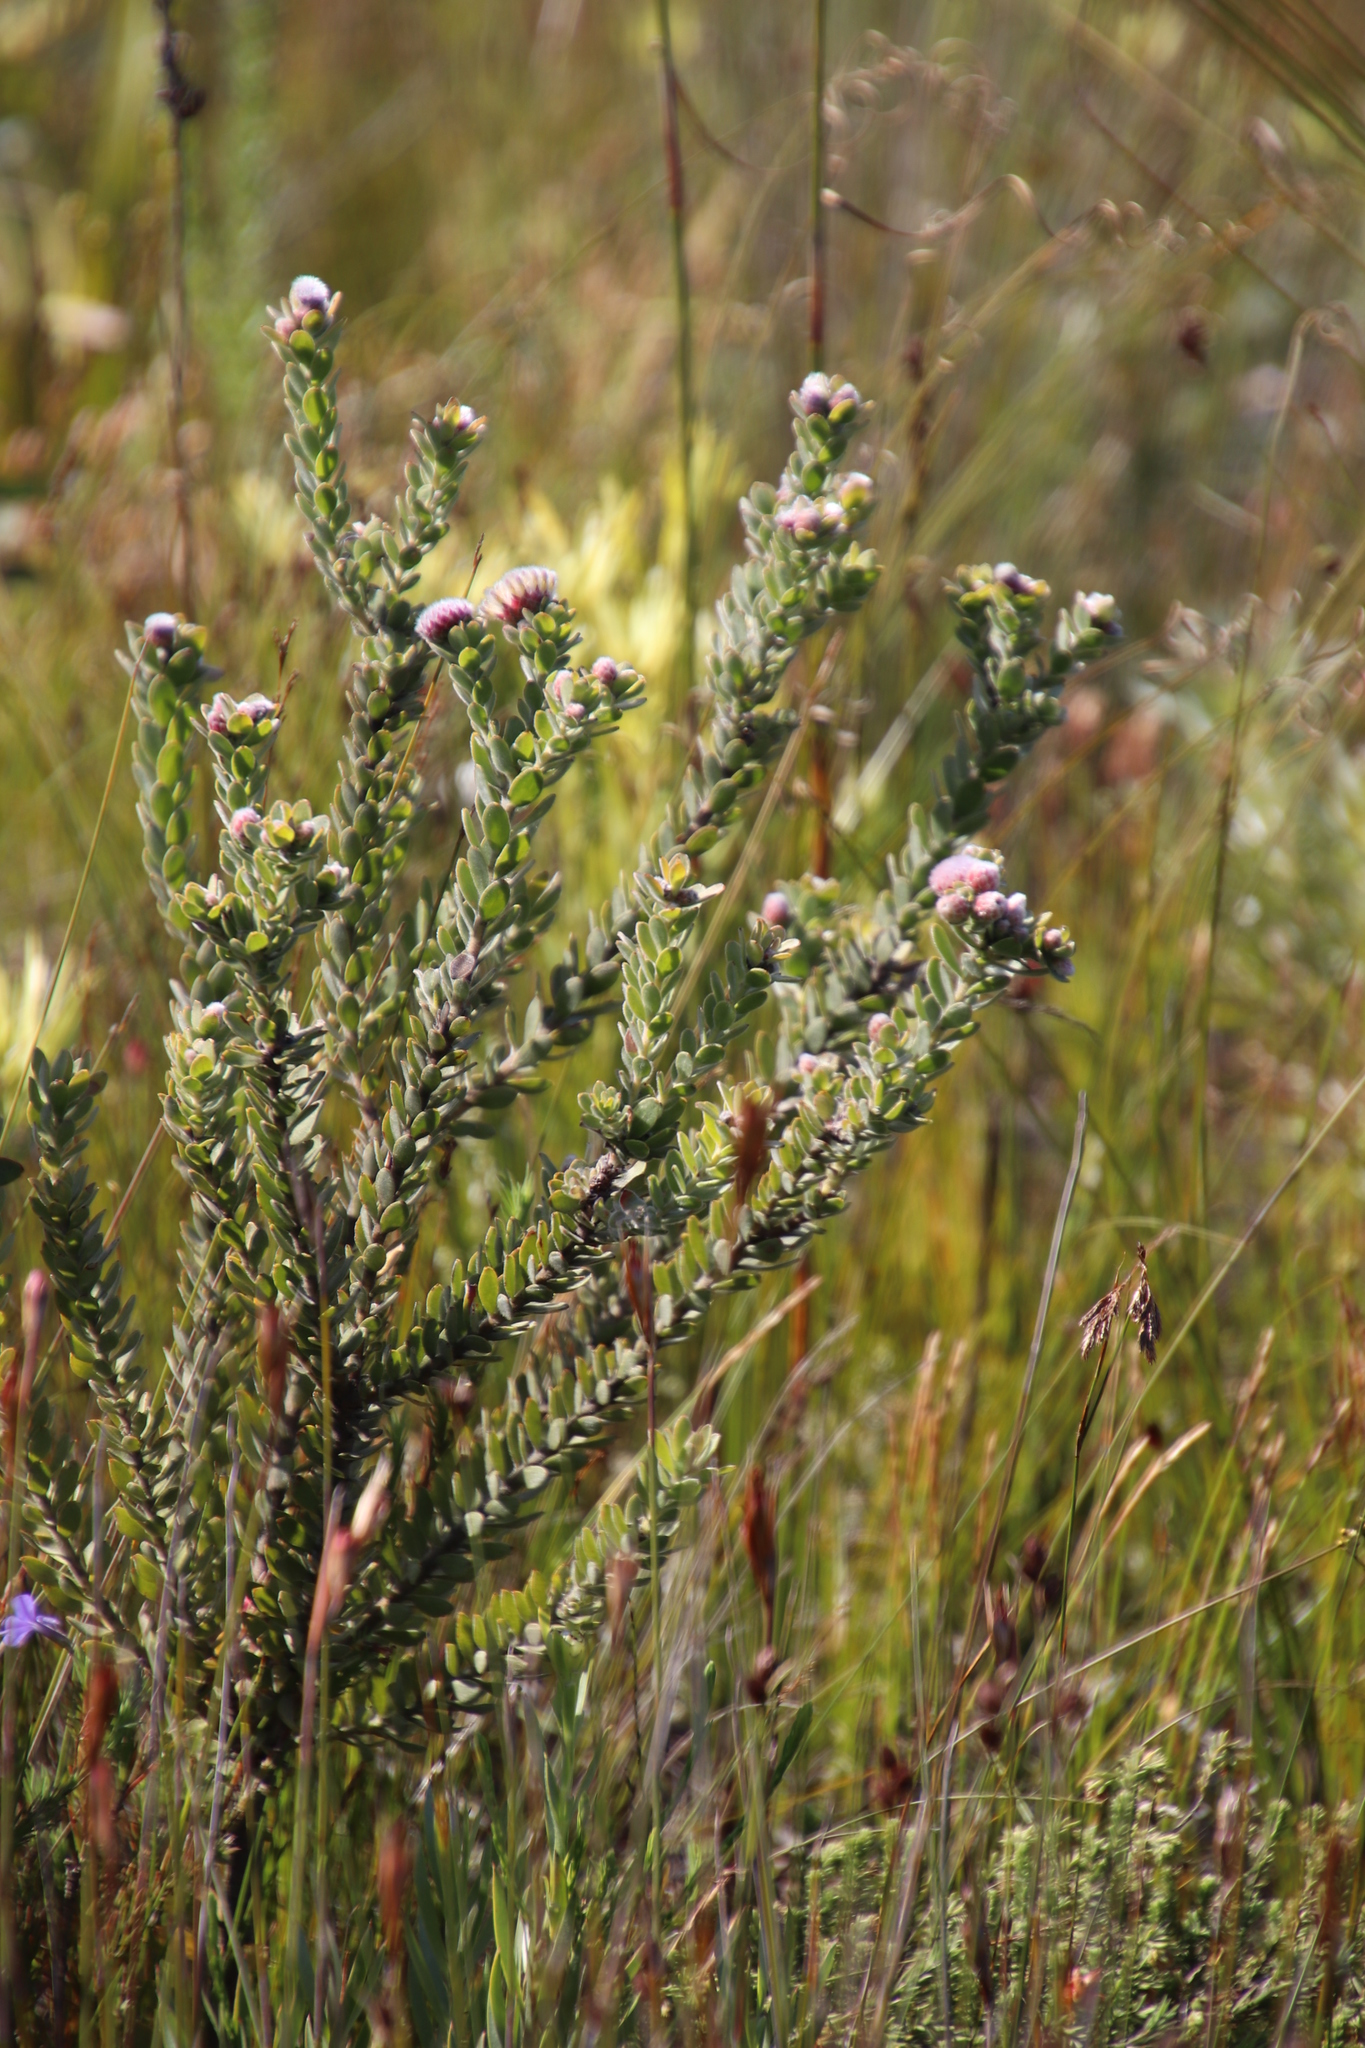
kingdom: Plantae
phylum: Tracheophyta
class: Magnoliopsida
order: Proteales
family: Proteaceae
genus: Leucospermum
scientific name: Leucospermum truncatulum
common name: Oval-leaf pincushion
